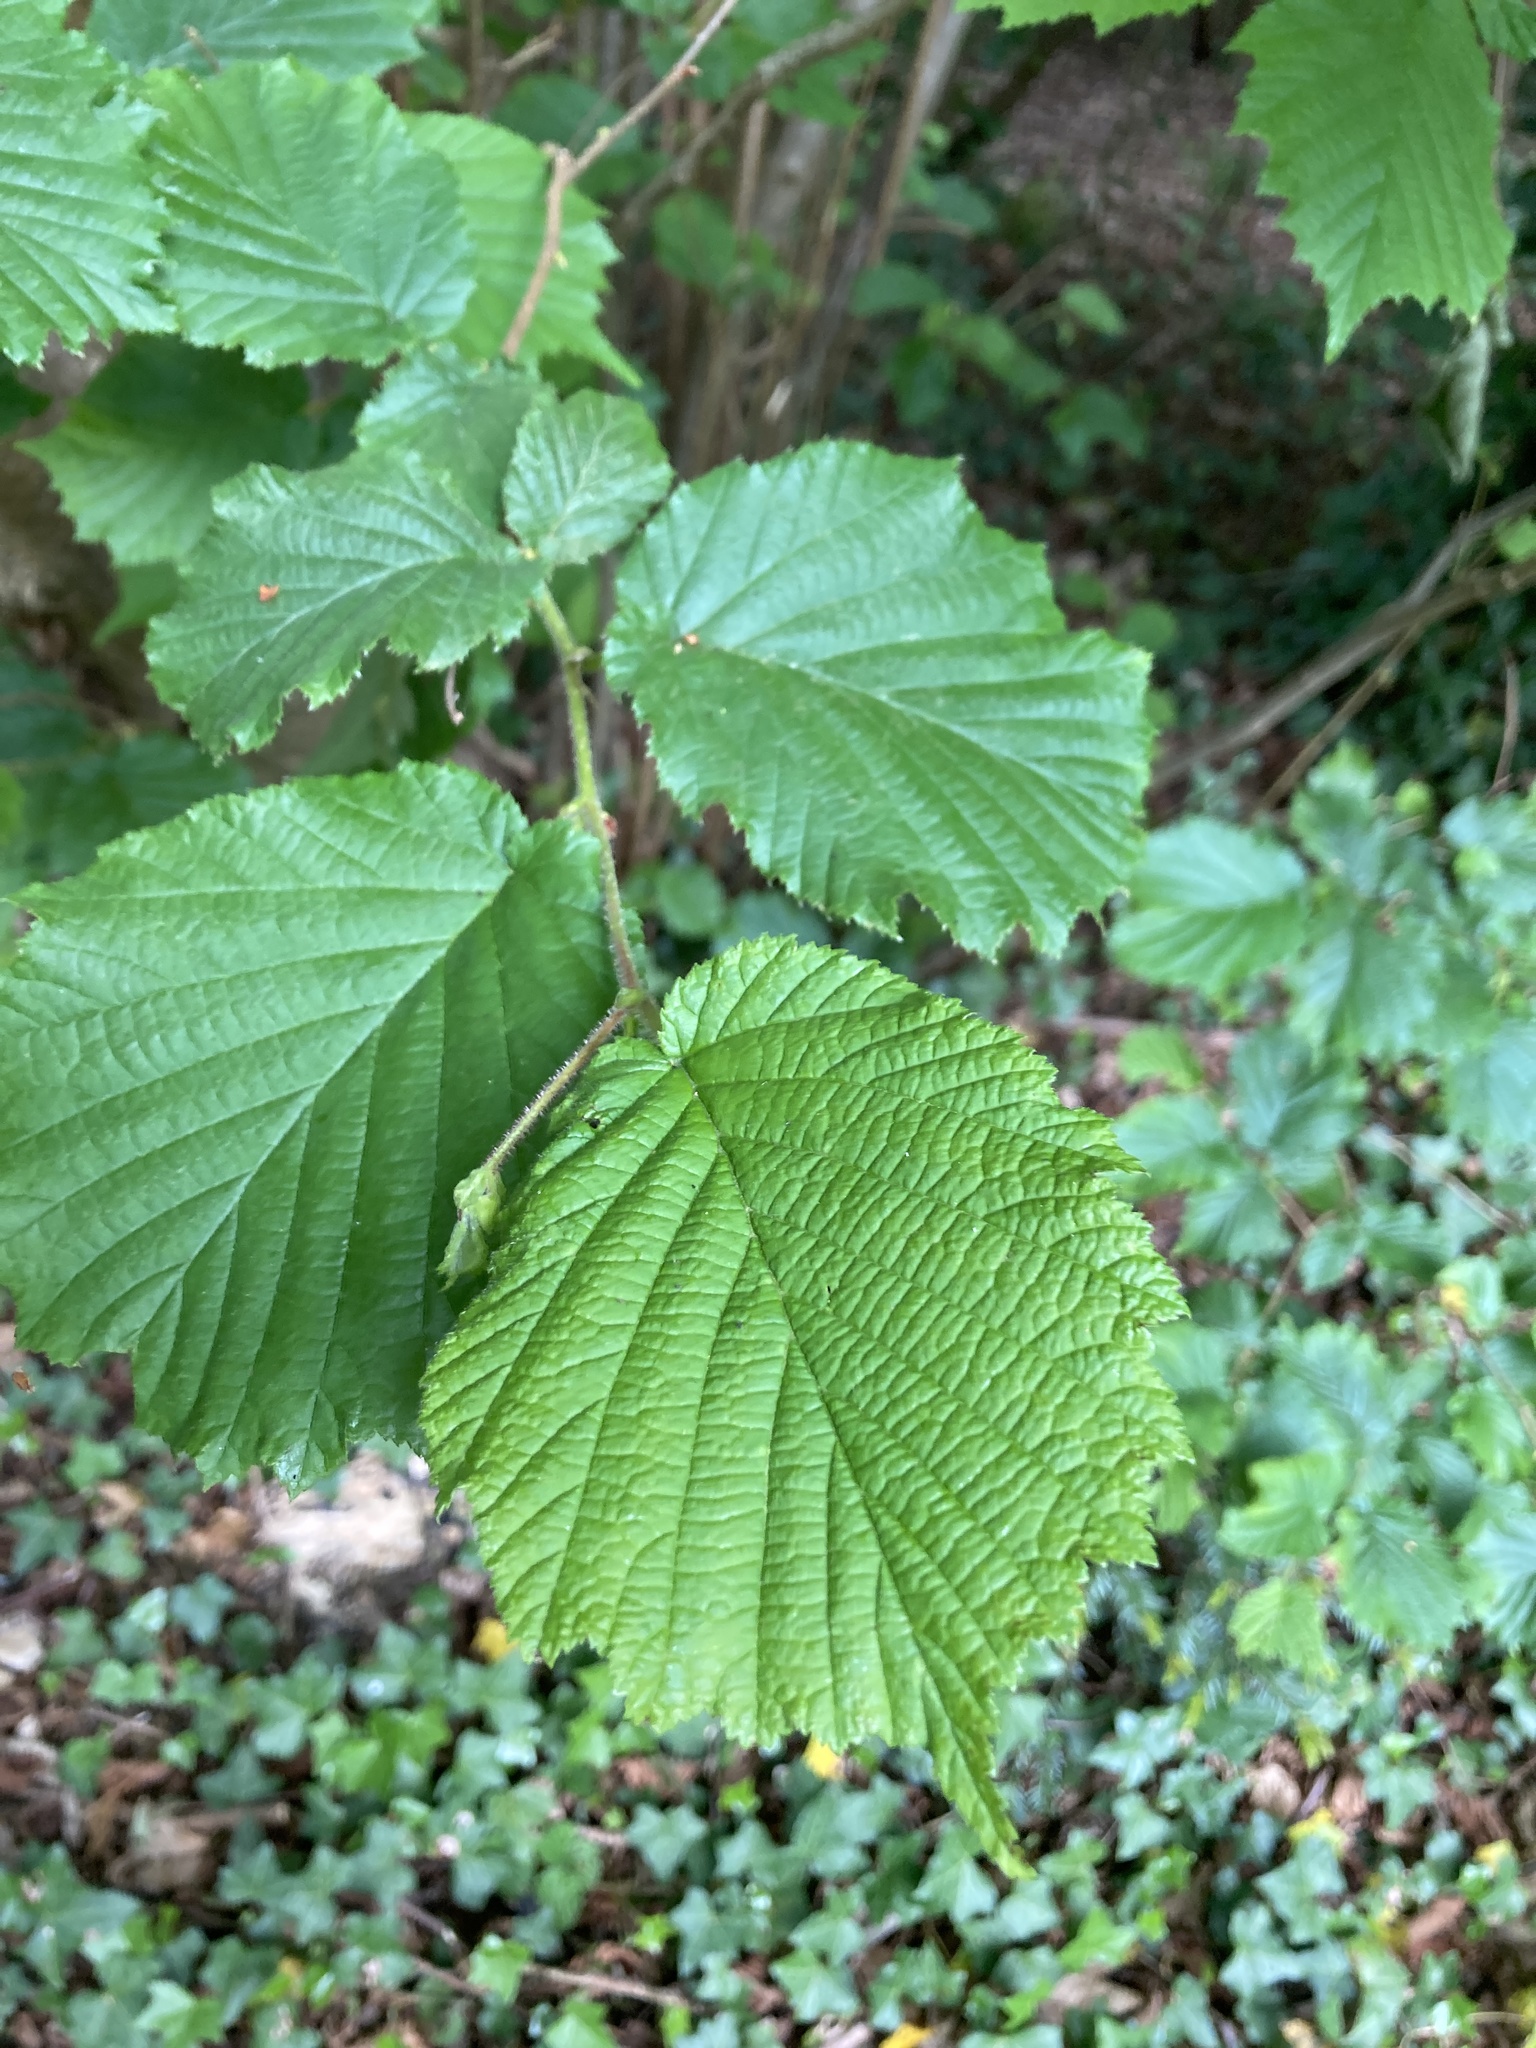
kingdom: Plantae
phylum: Tracheophyta
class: Magnoliopsida
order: Fagales
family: Betulaceae
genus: Corylus
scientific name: Corylus avellana
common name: European hazel
